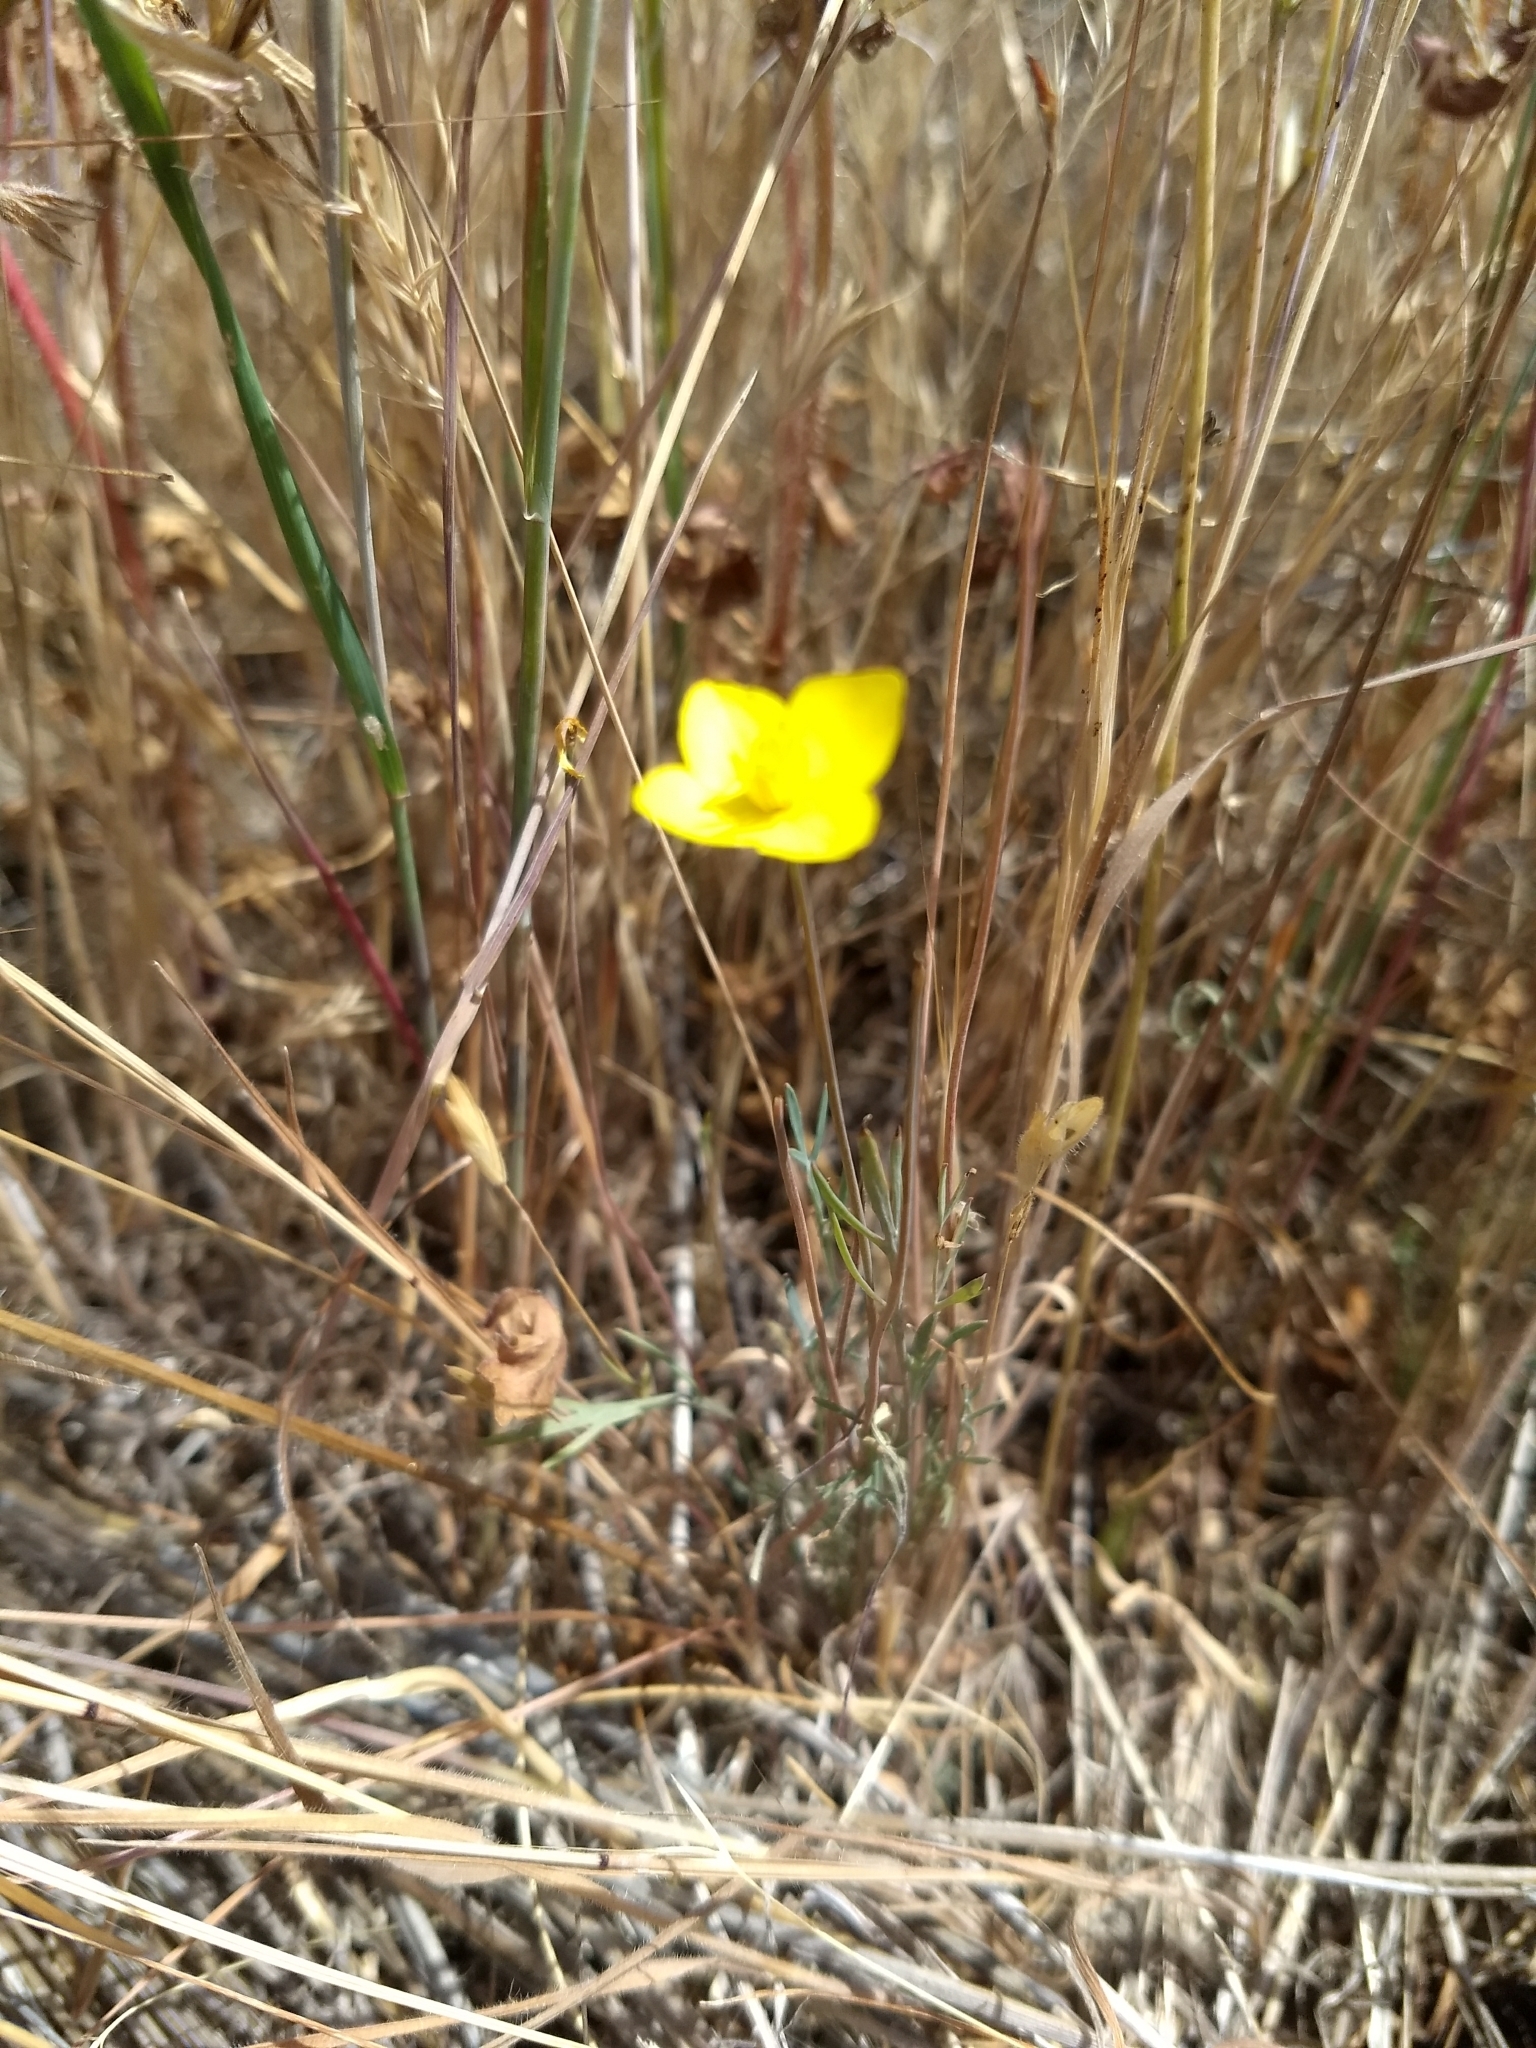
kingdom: Plantae
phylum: Tracheophyta
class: Magnoliopsida
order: Ranunculales
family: Papaveraceae
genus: Eschscholzia
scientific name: Eschscholzia lobbii
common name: Frying-pans
